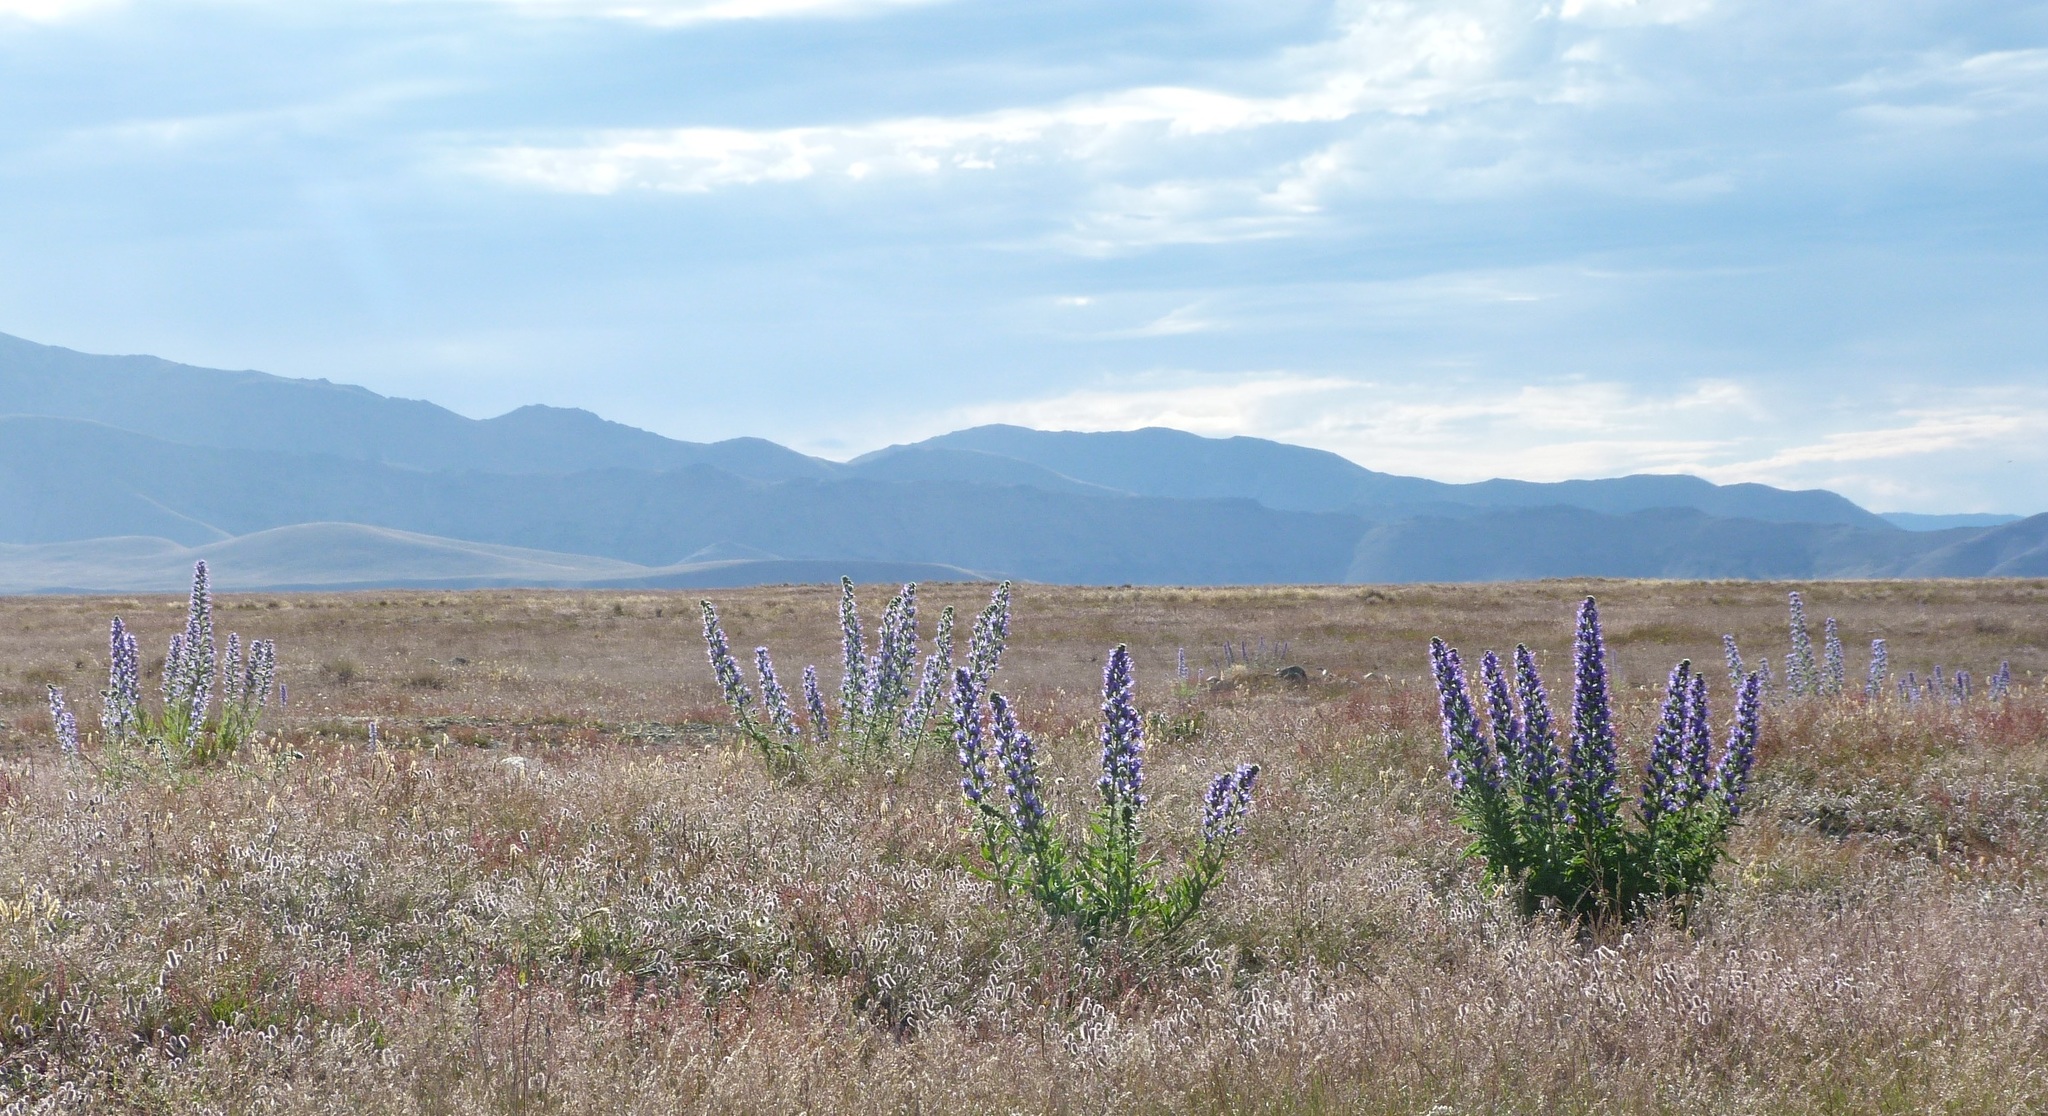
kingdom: Plantae
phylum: Tracheophyta
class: Magnoliopsida
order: Boraginales
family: Boraginaceae
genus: Echium
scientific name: Echium vulgare
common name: Common viper's bugloss
